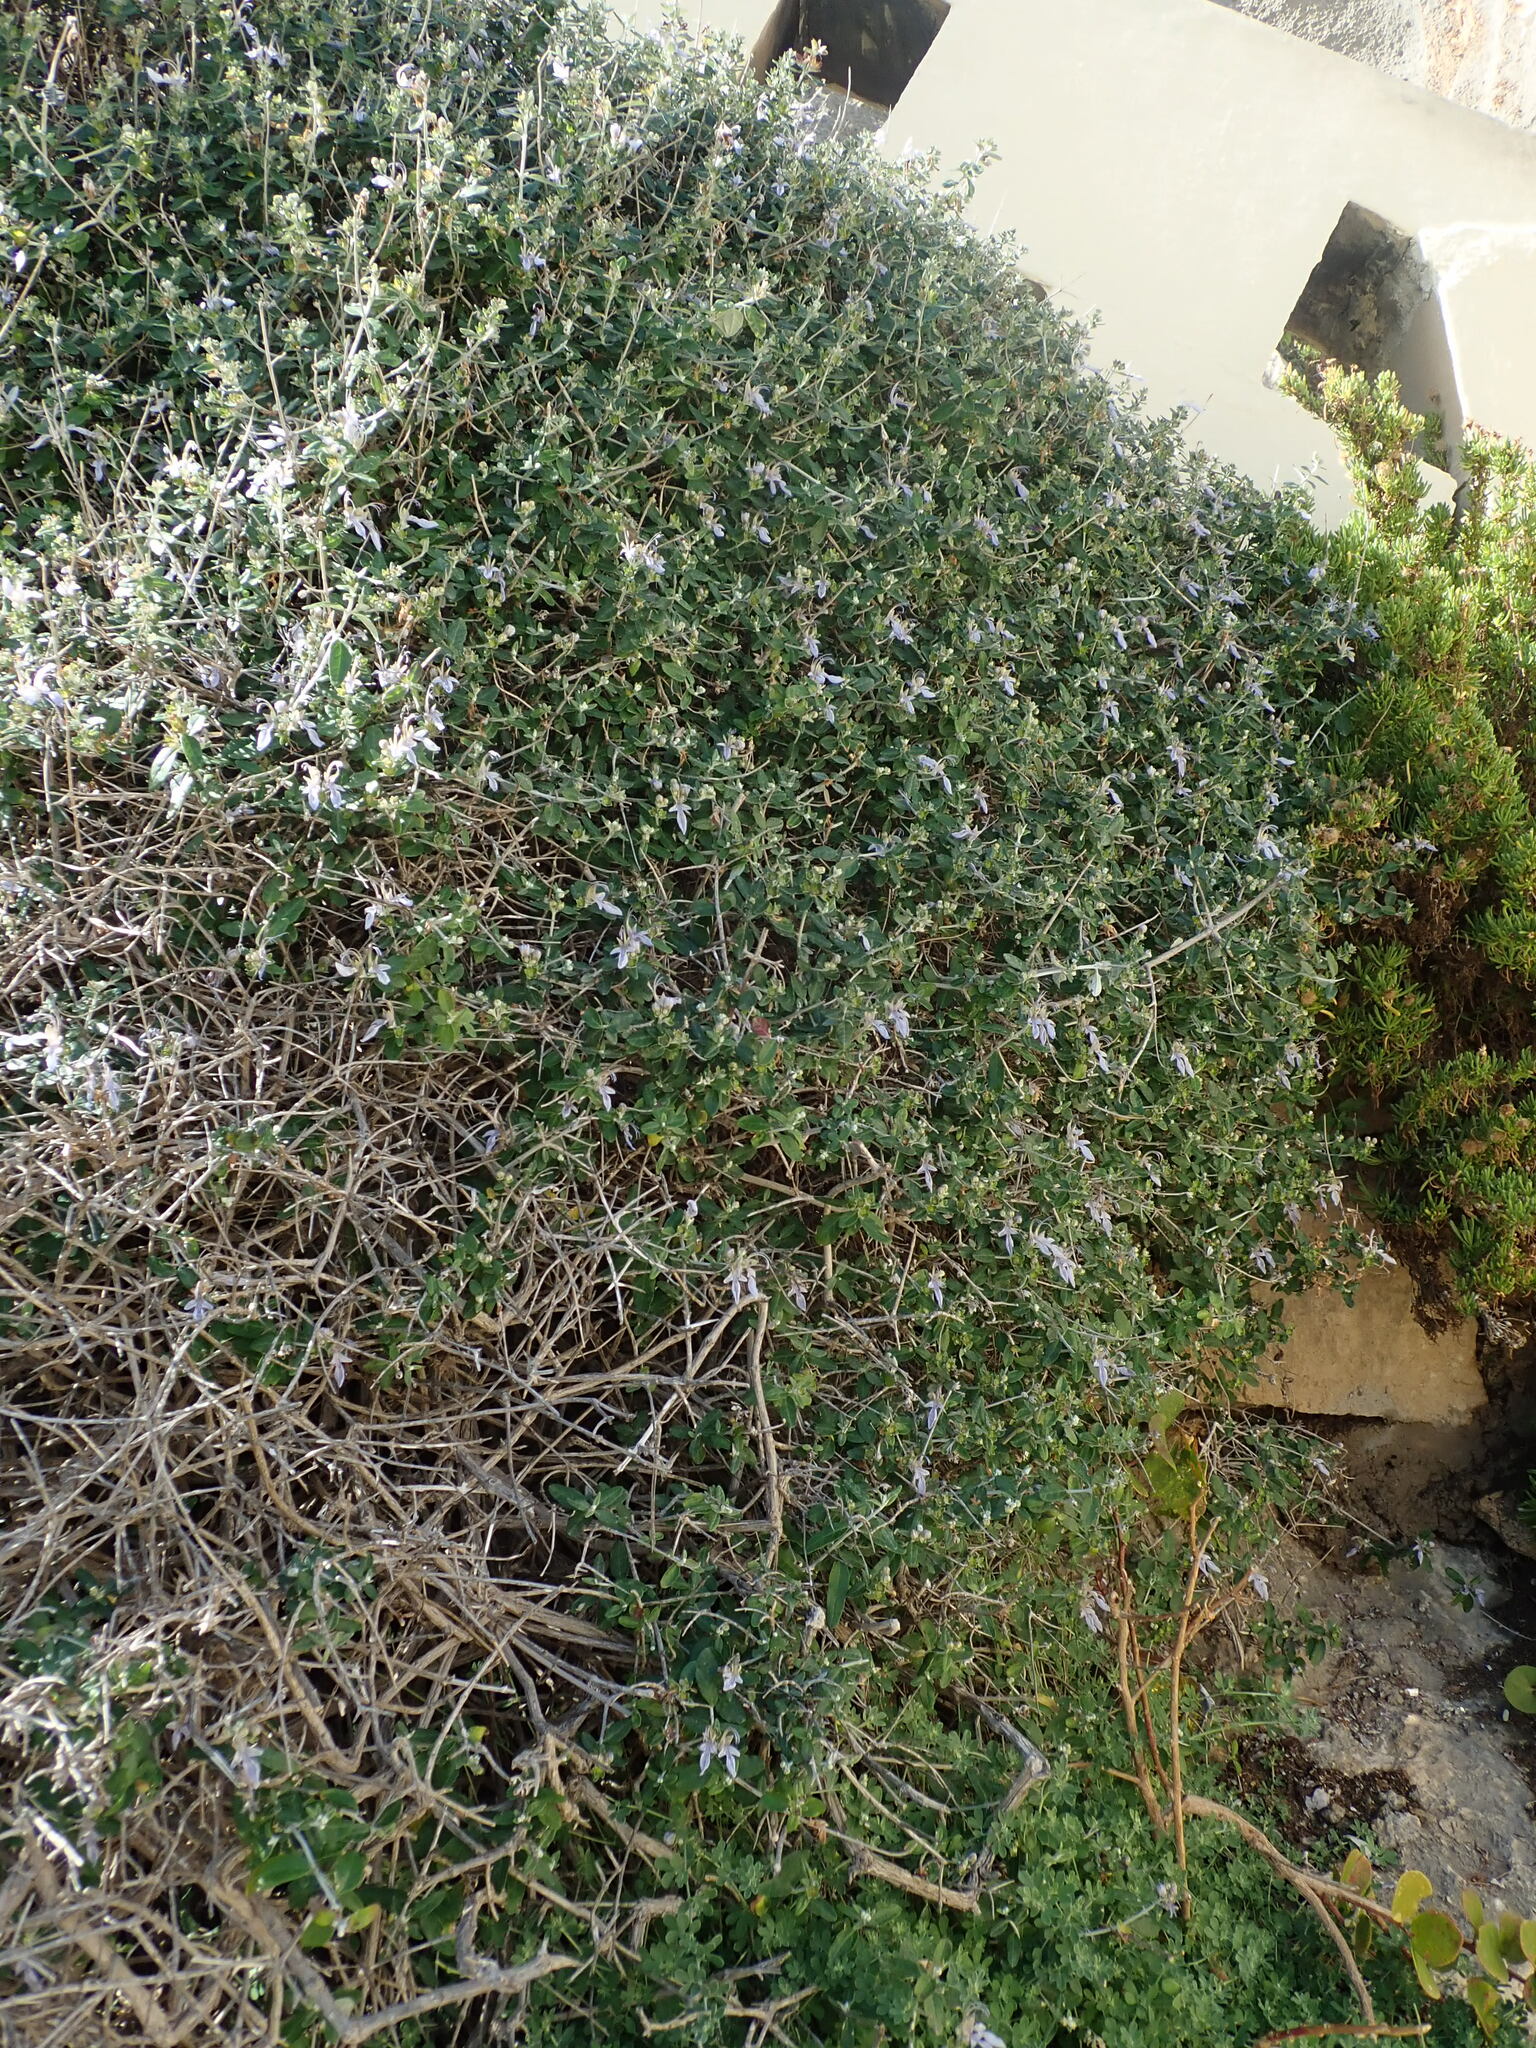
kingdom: Plantae
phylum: Tracheophyta
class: Magnoliopsida
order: Lamiales
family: Lamiaceae
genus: Teucrium
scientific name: Teucrium fruticans
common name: Shrubby germander
